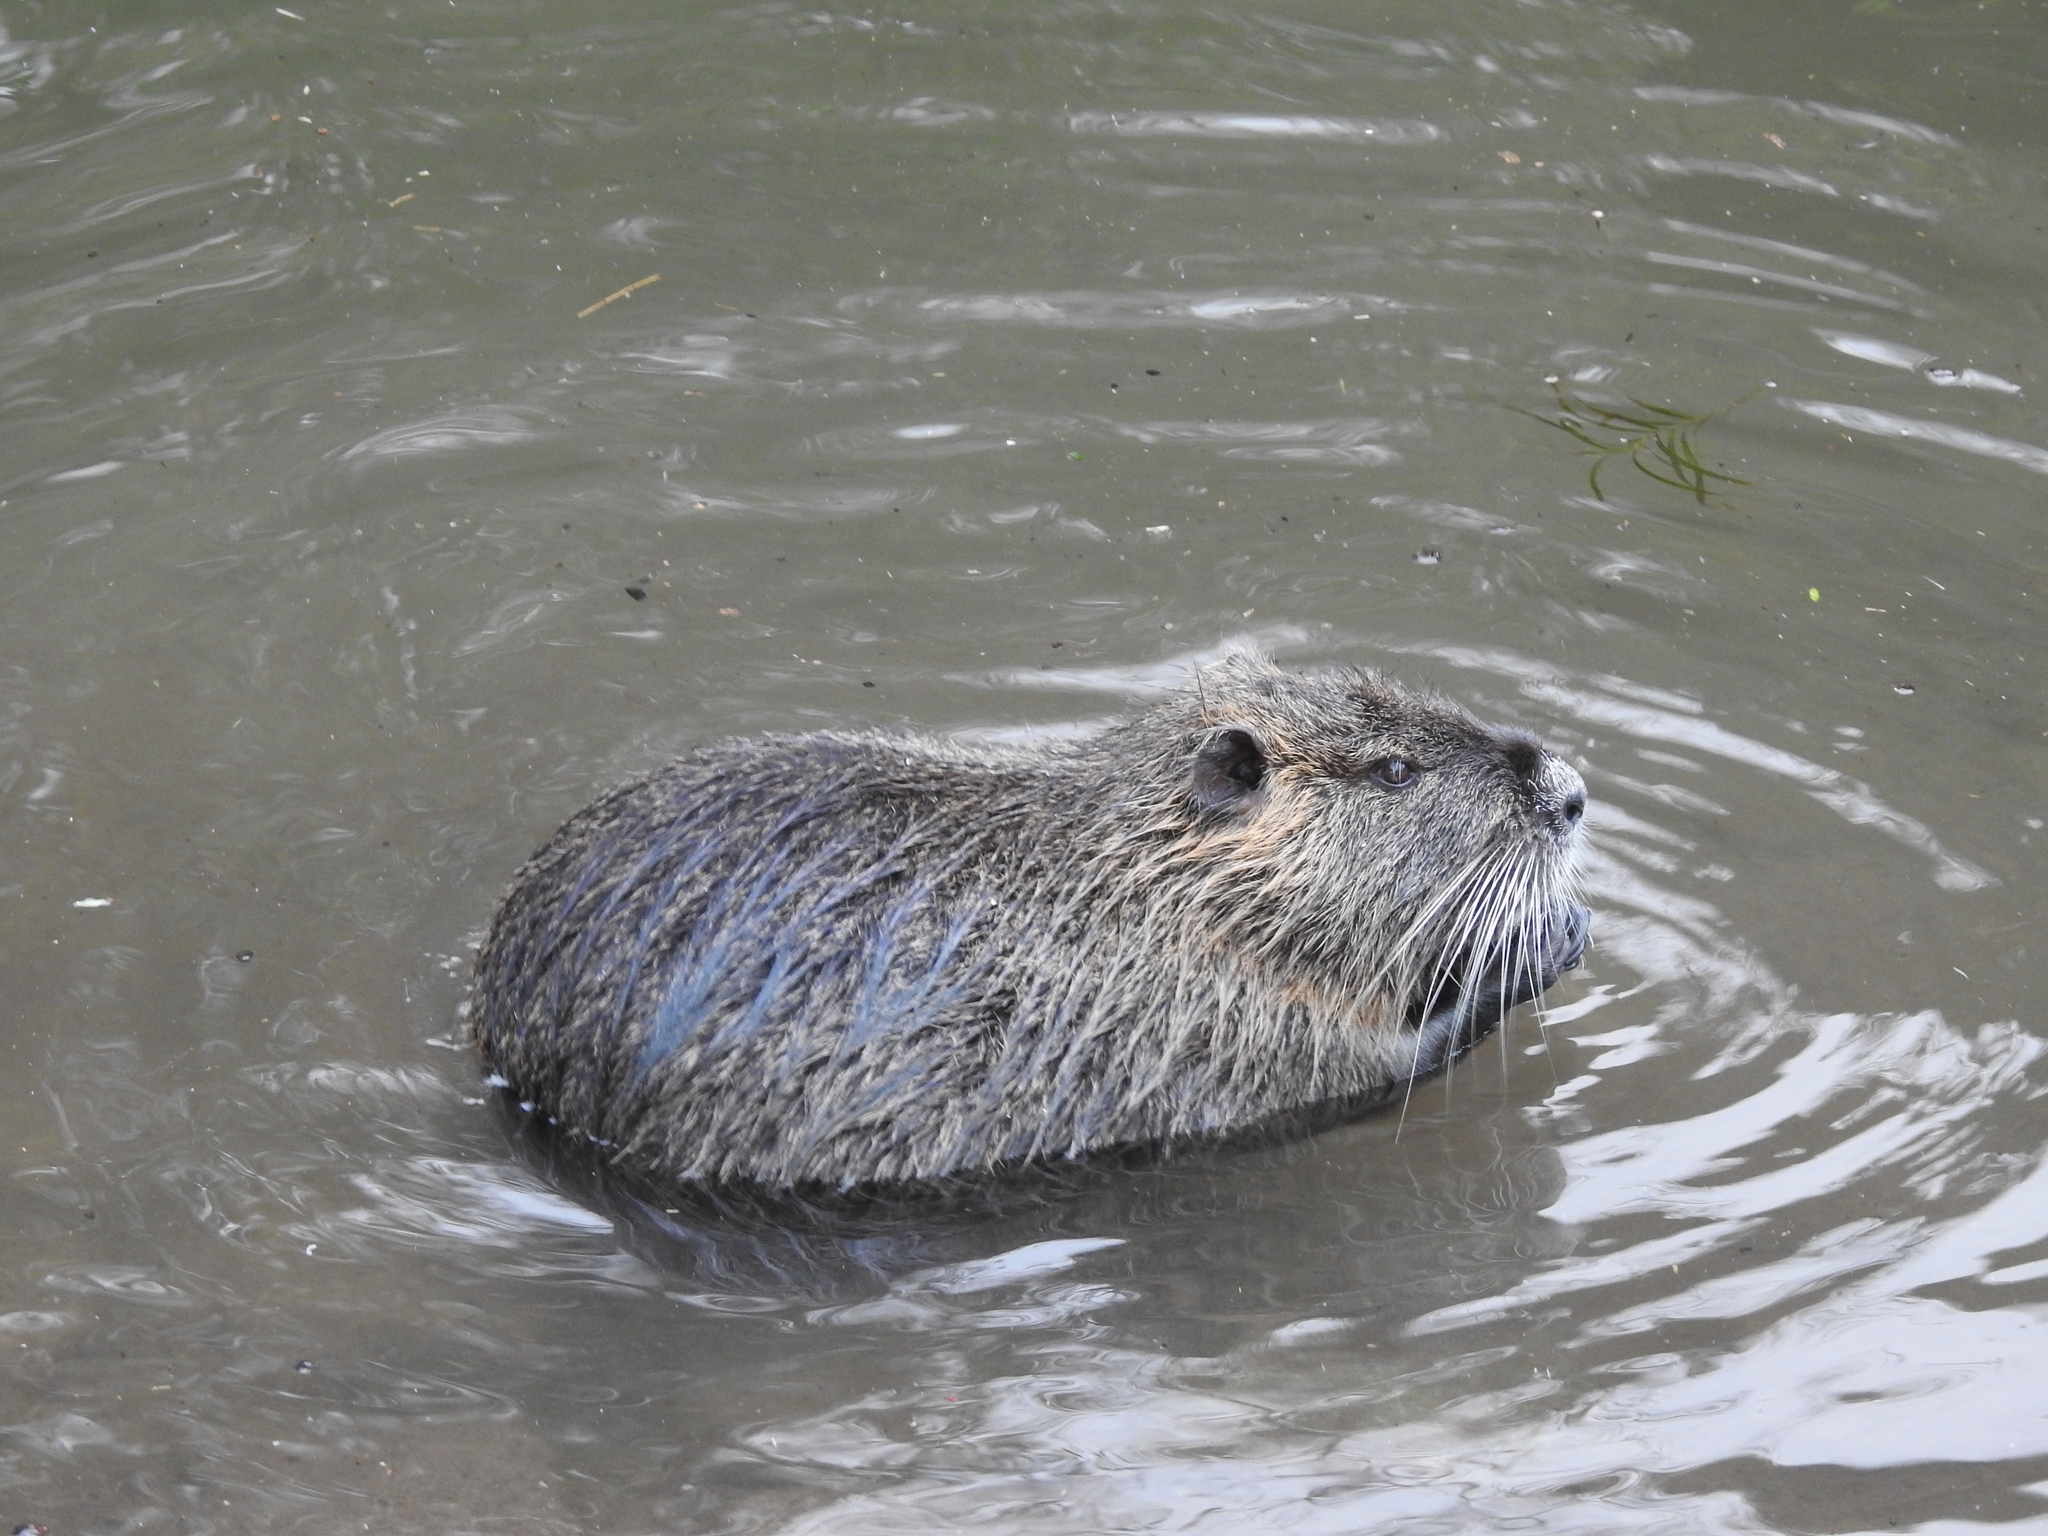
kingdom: Animalia
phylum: Chordata
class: Mammalia
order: Rodentia
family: Myocastoridae
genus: Myocastor
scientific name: Myocastor coypus
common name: Coypu
